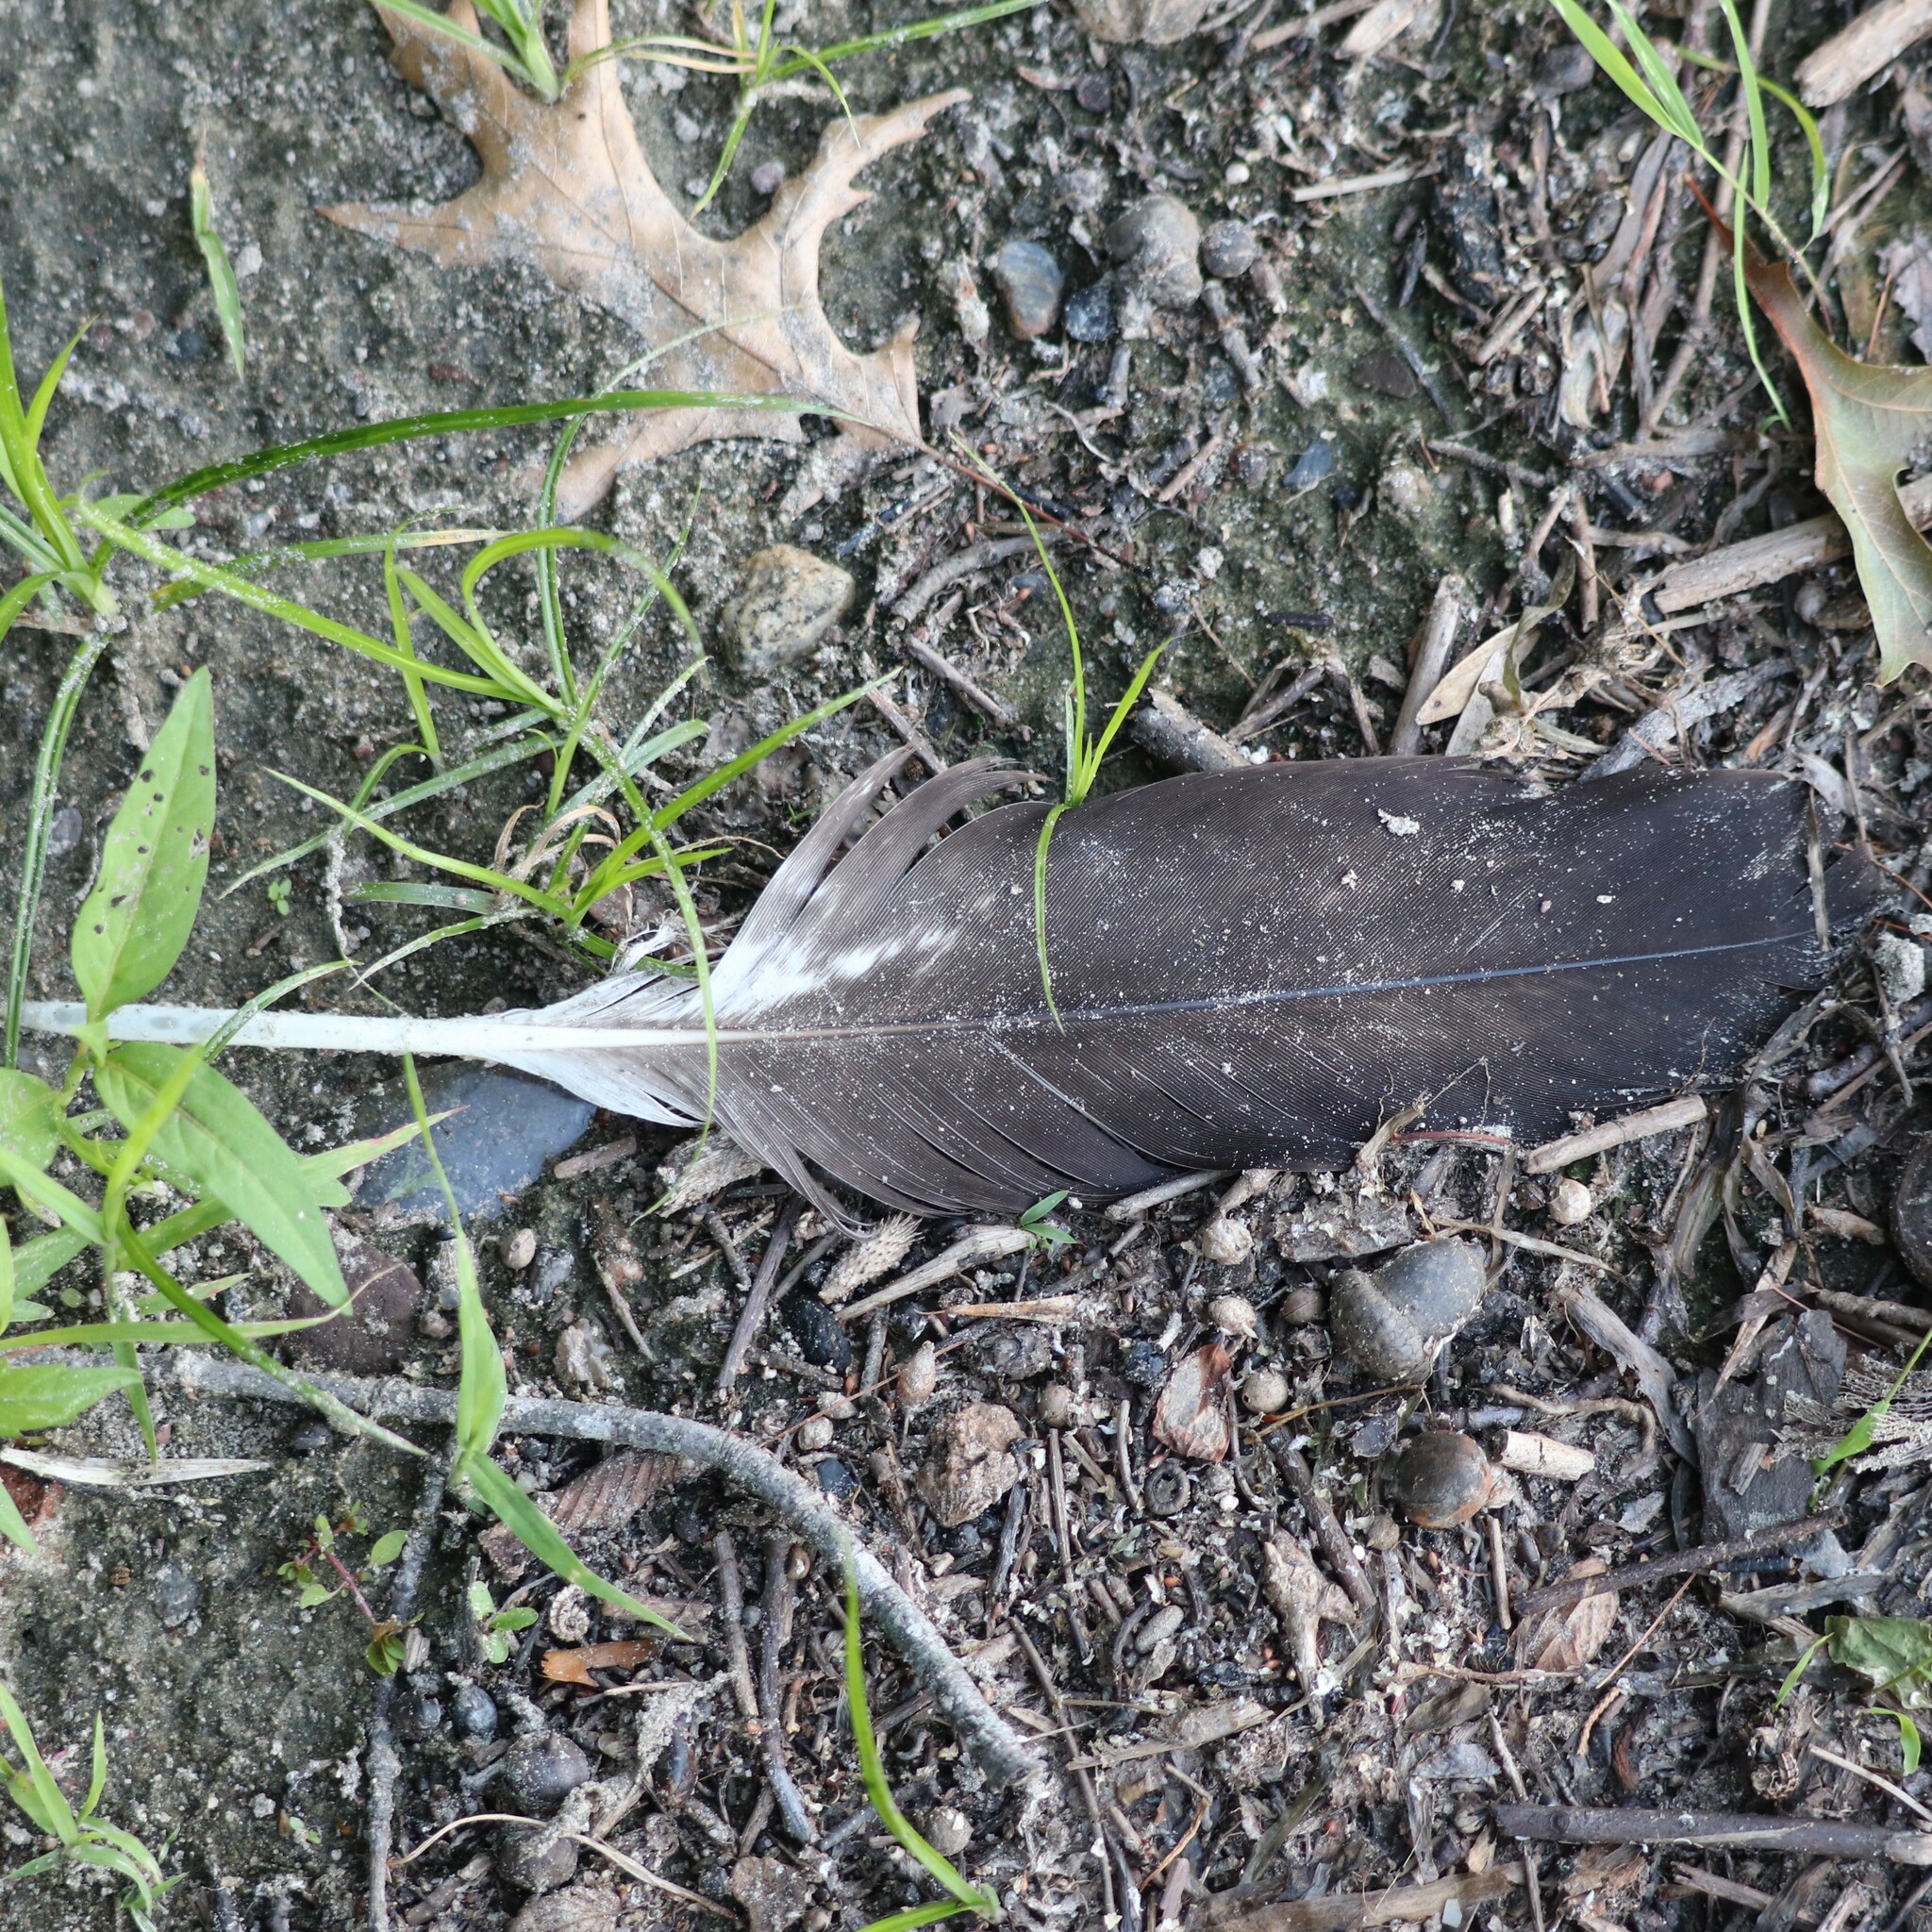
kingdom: Animalia
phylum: Chordata
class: Aves
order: Accipitriformes
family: Accipitridae
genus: Haliaeetus
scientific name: Haliaeetus leucocephalus
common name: Bald eagle
